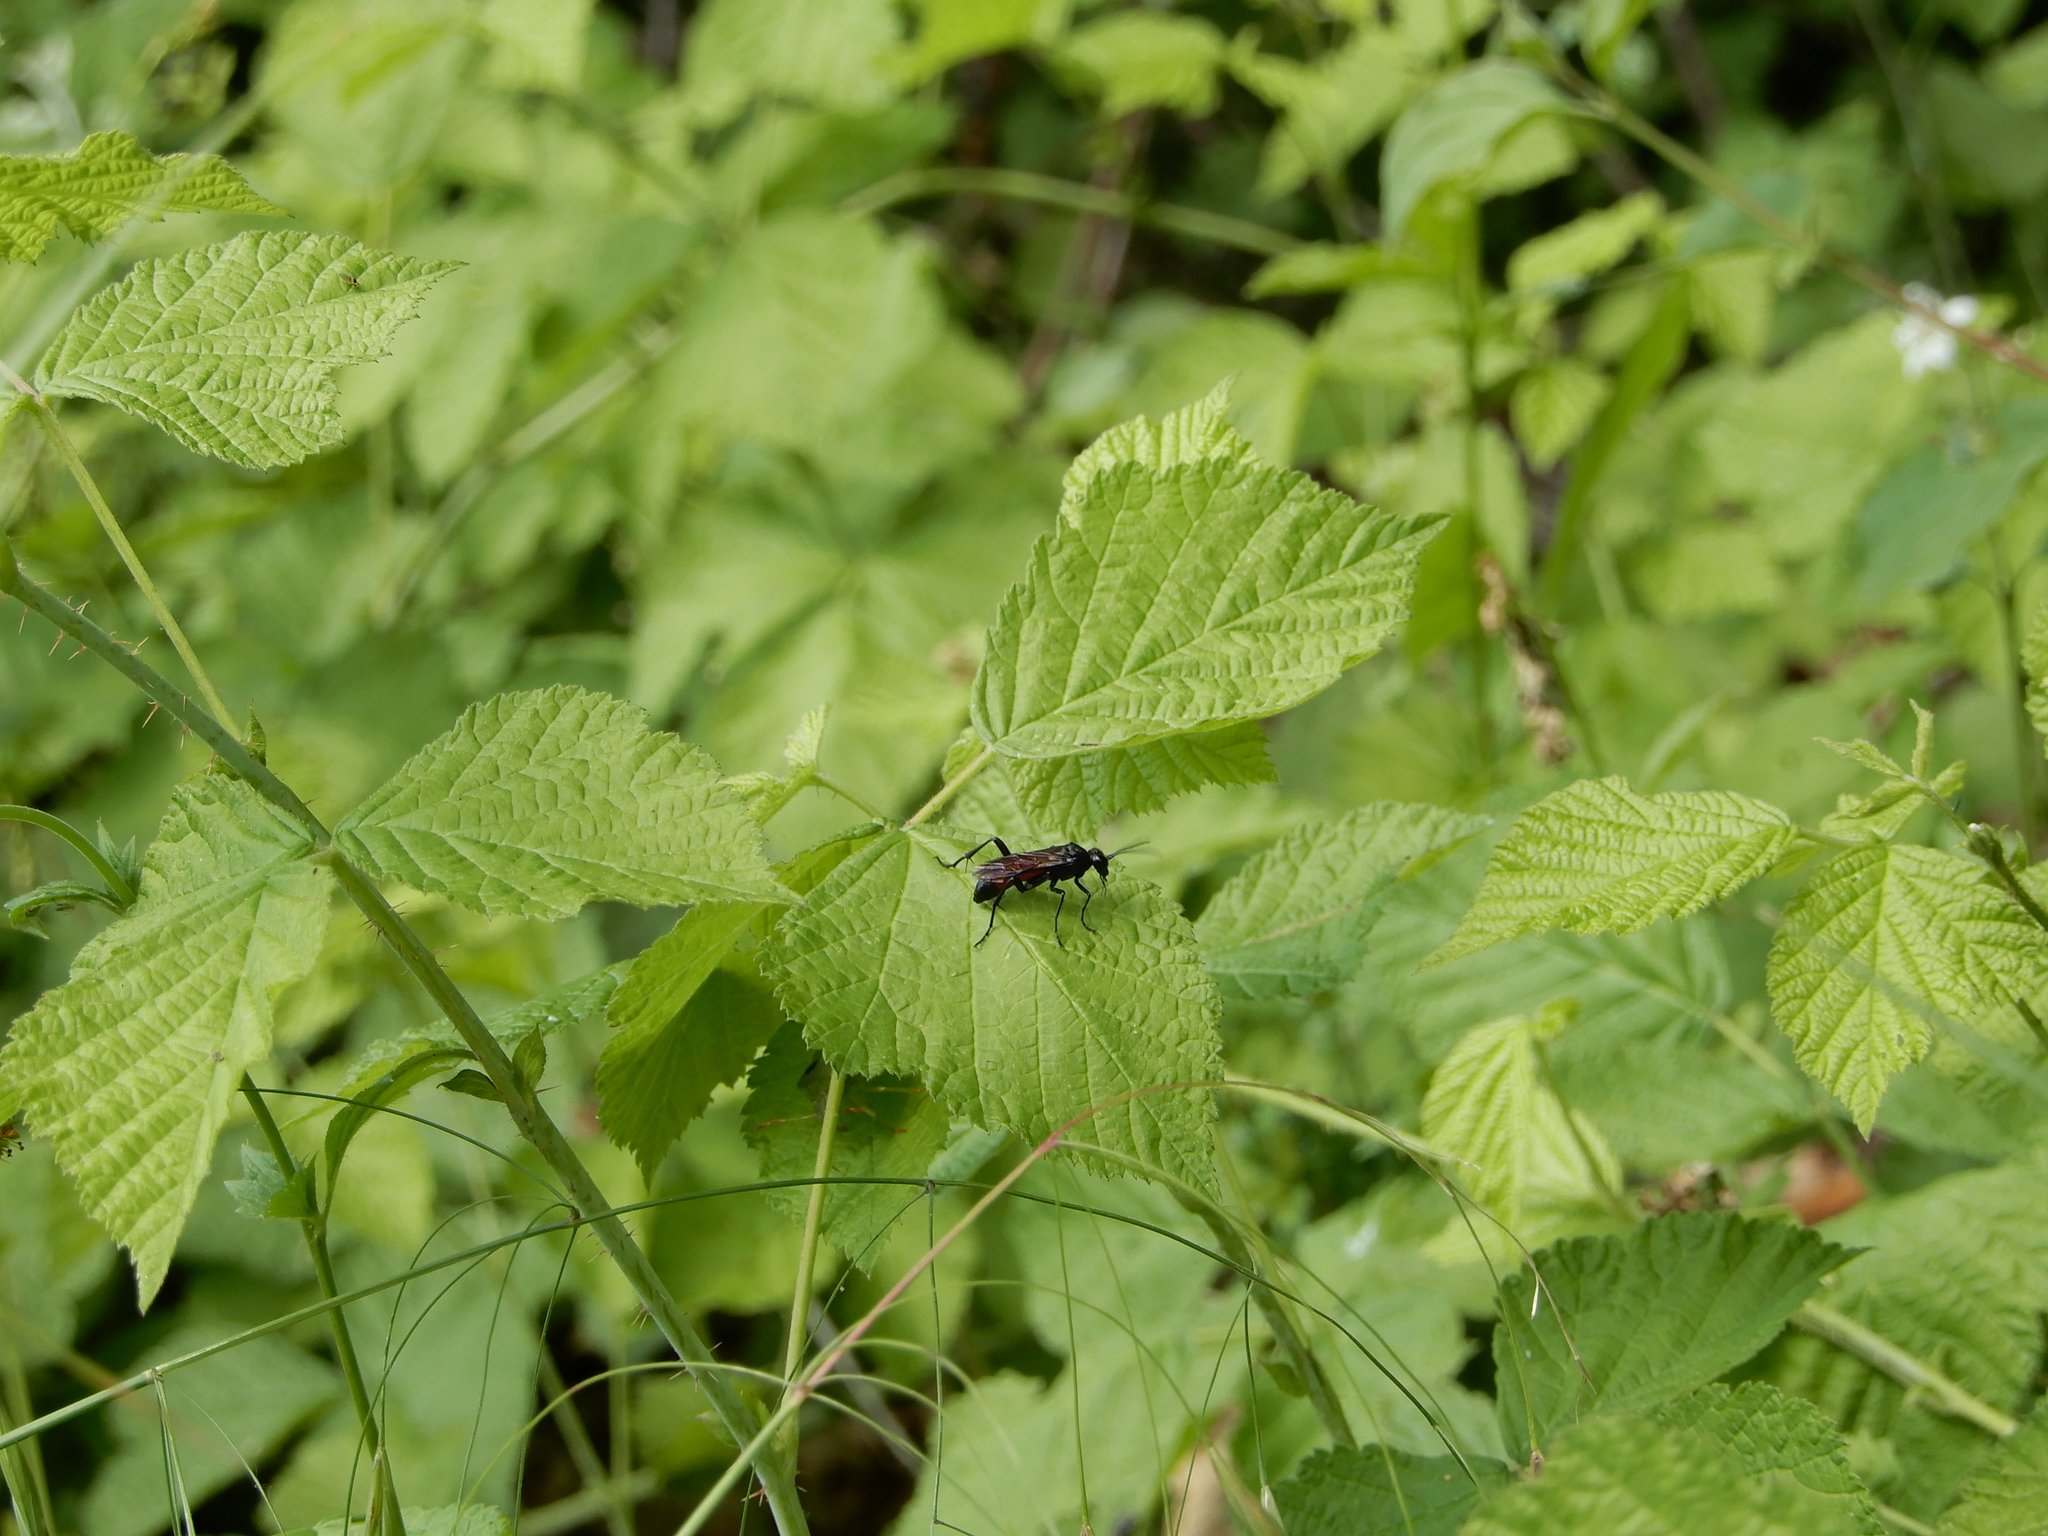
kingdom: Animalia
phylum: Arthropoda
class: Insecta
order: Hymenoptera
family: Tenthredinidae
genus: Macrophya
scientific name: Macrophya annulata
